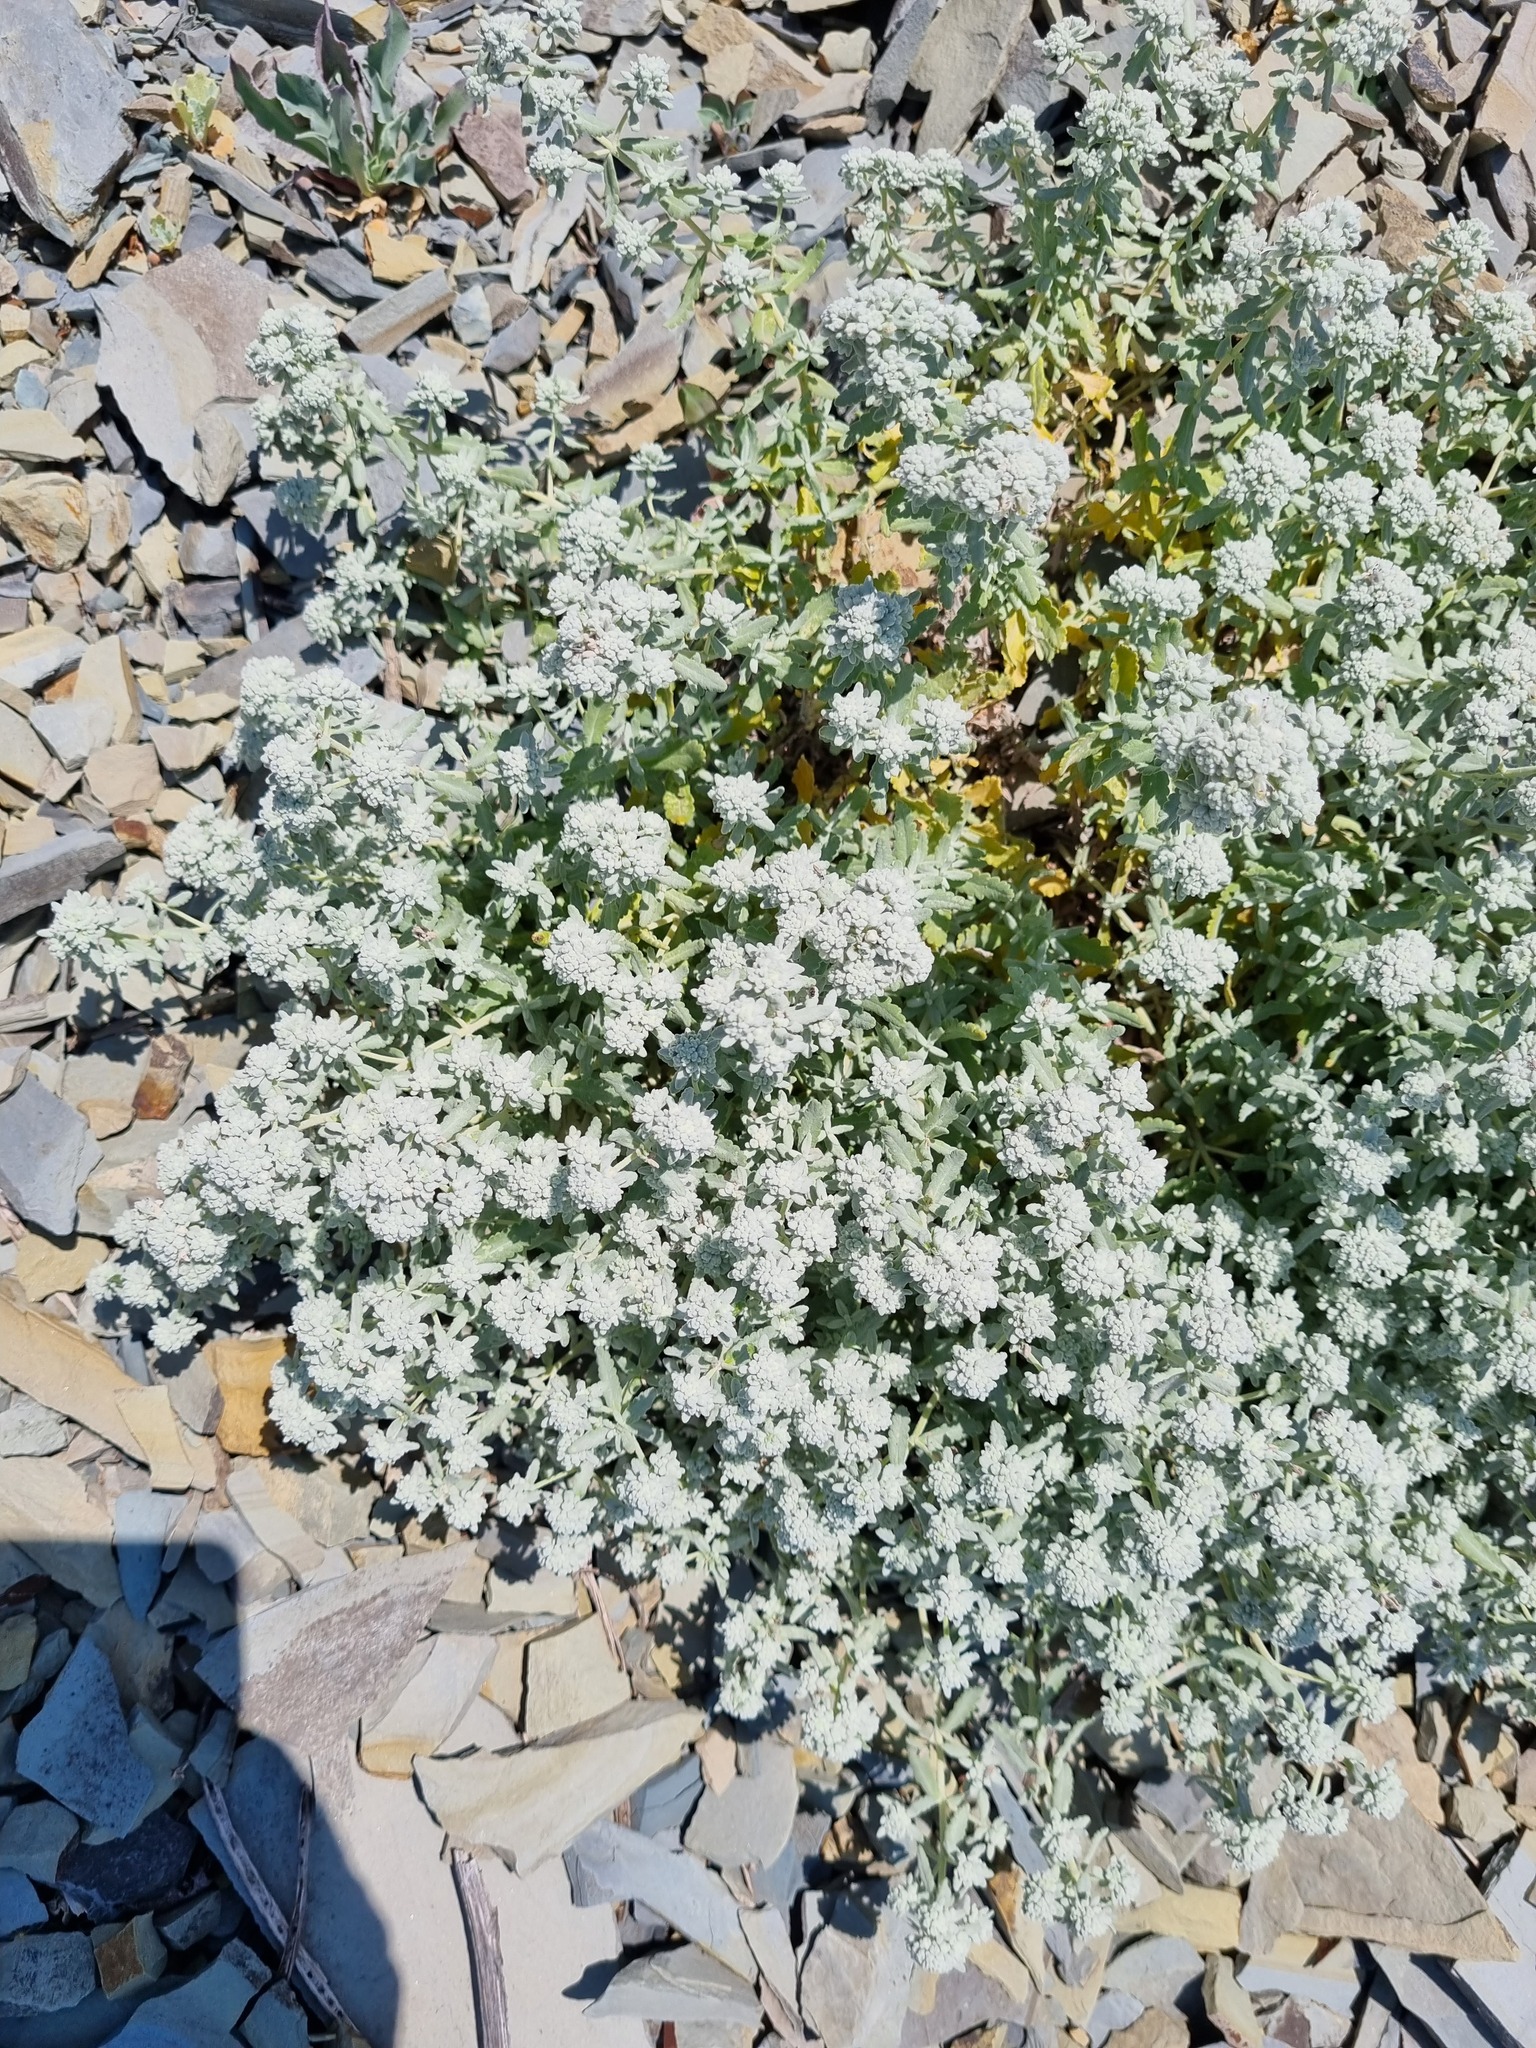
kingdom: Plantae
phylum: Tracheophyta
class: Magnoliopsida
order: Lamiales
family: Lamiaceae
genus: Teucrium
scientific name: Teucrium polium
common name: Poley
